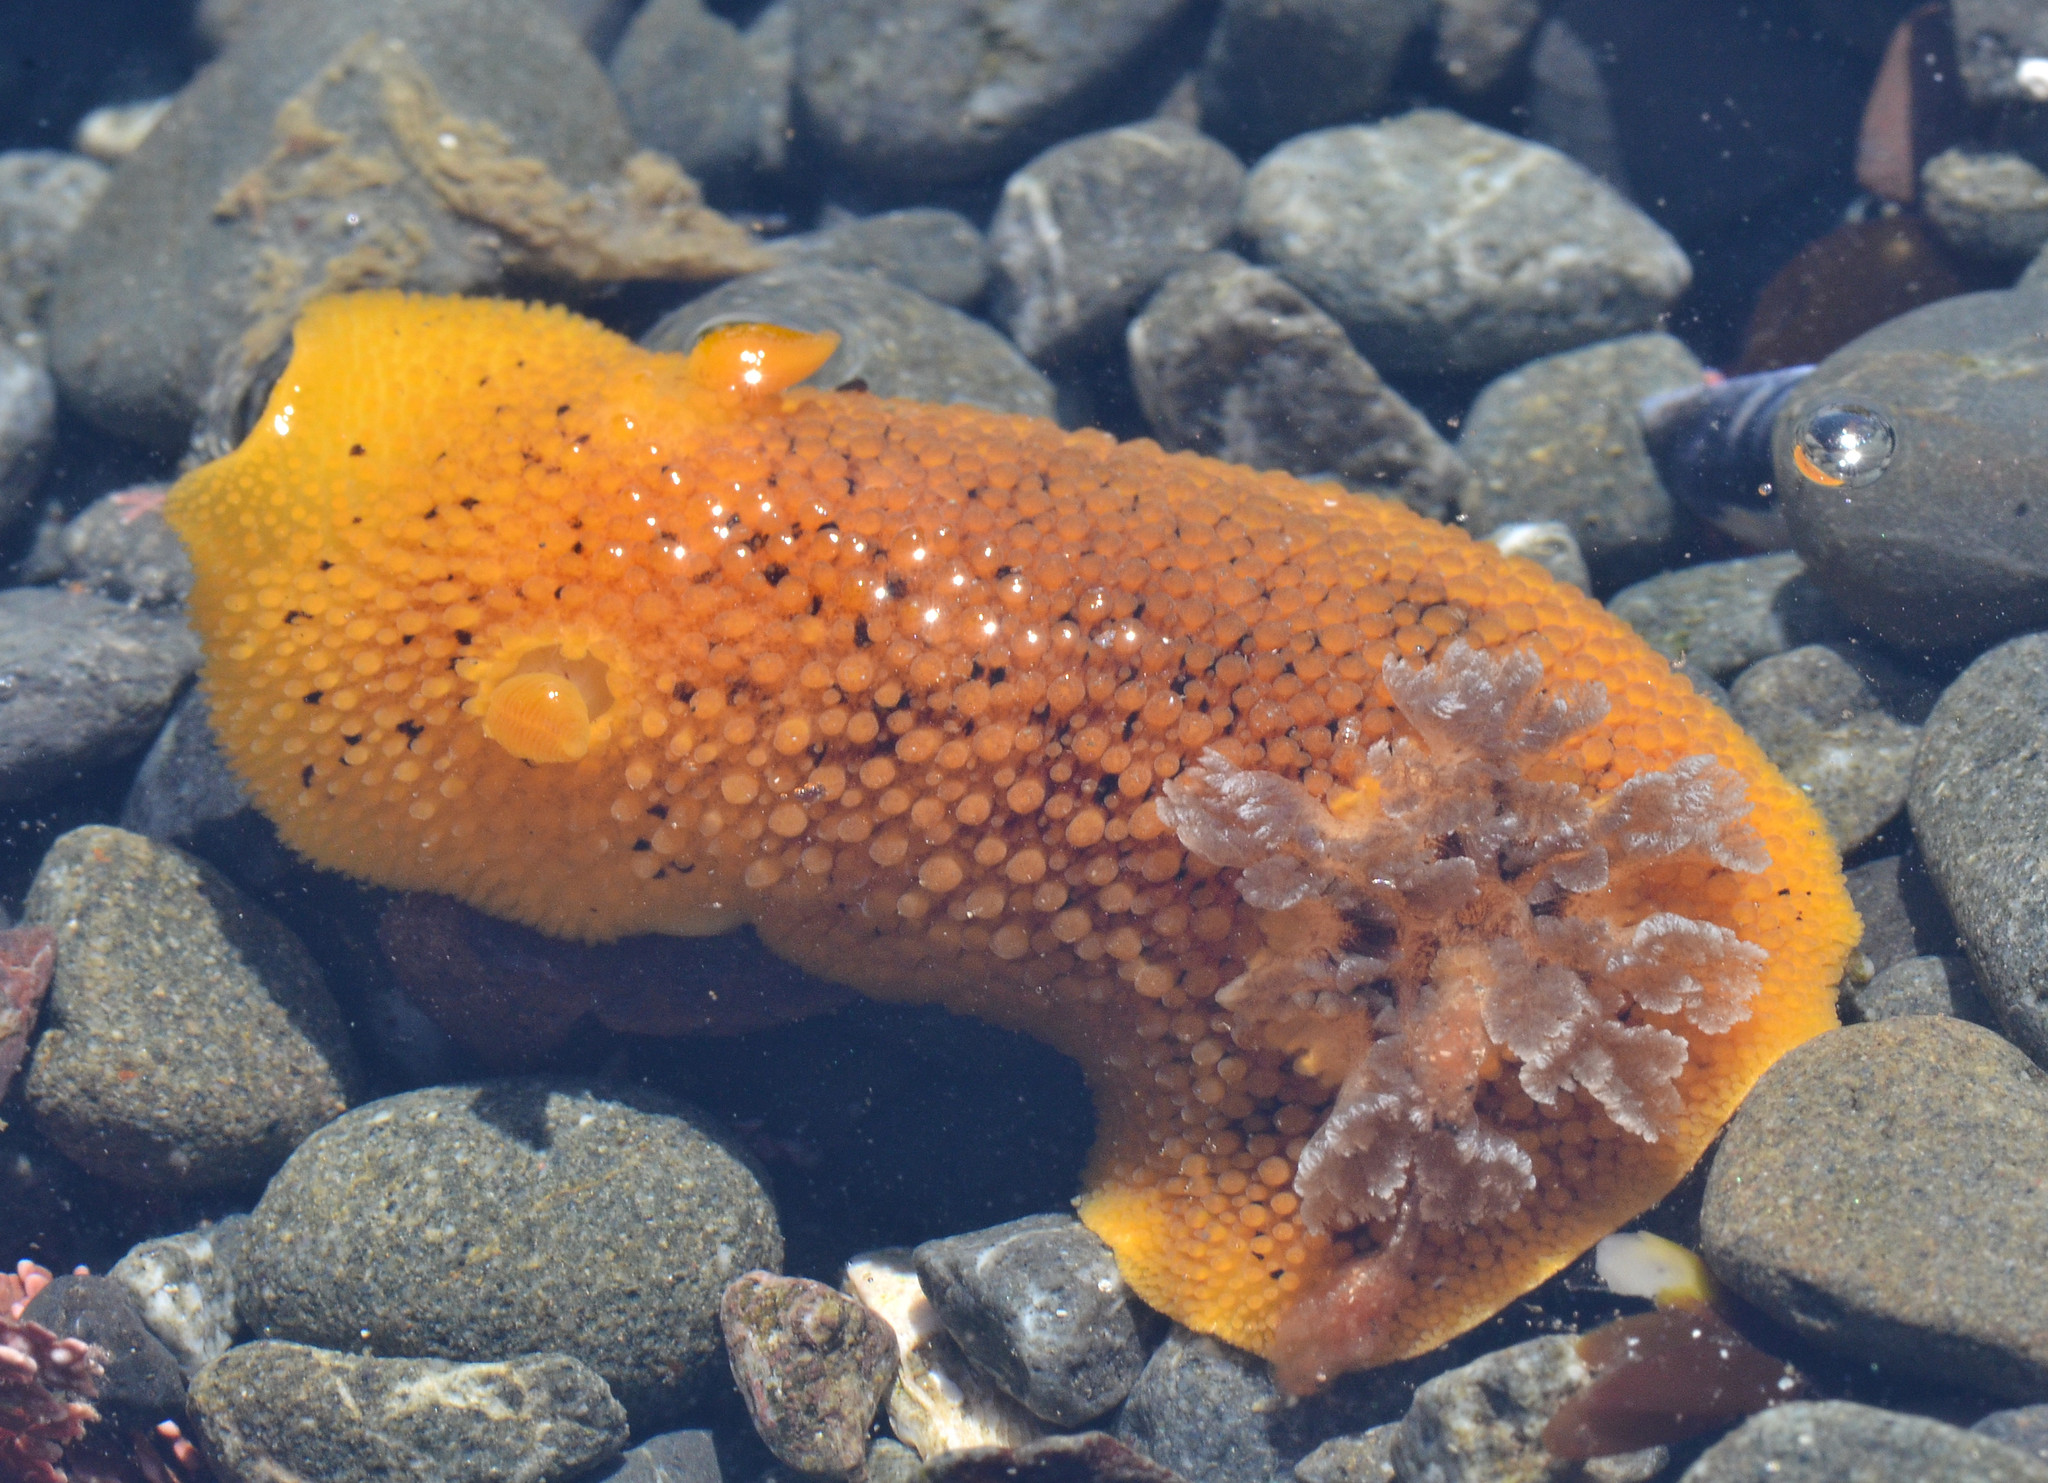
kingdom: Animalia
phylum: Mollusca
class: Gastropoda
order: Nudibranchia
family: Discodorididae
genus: Peltodoris
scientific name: Peltodoris nobilis
